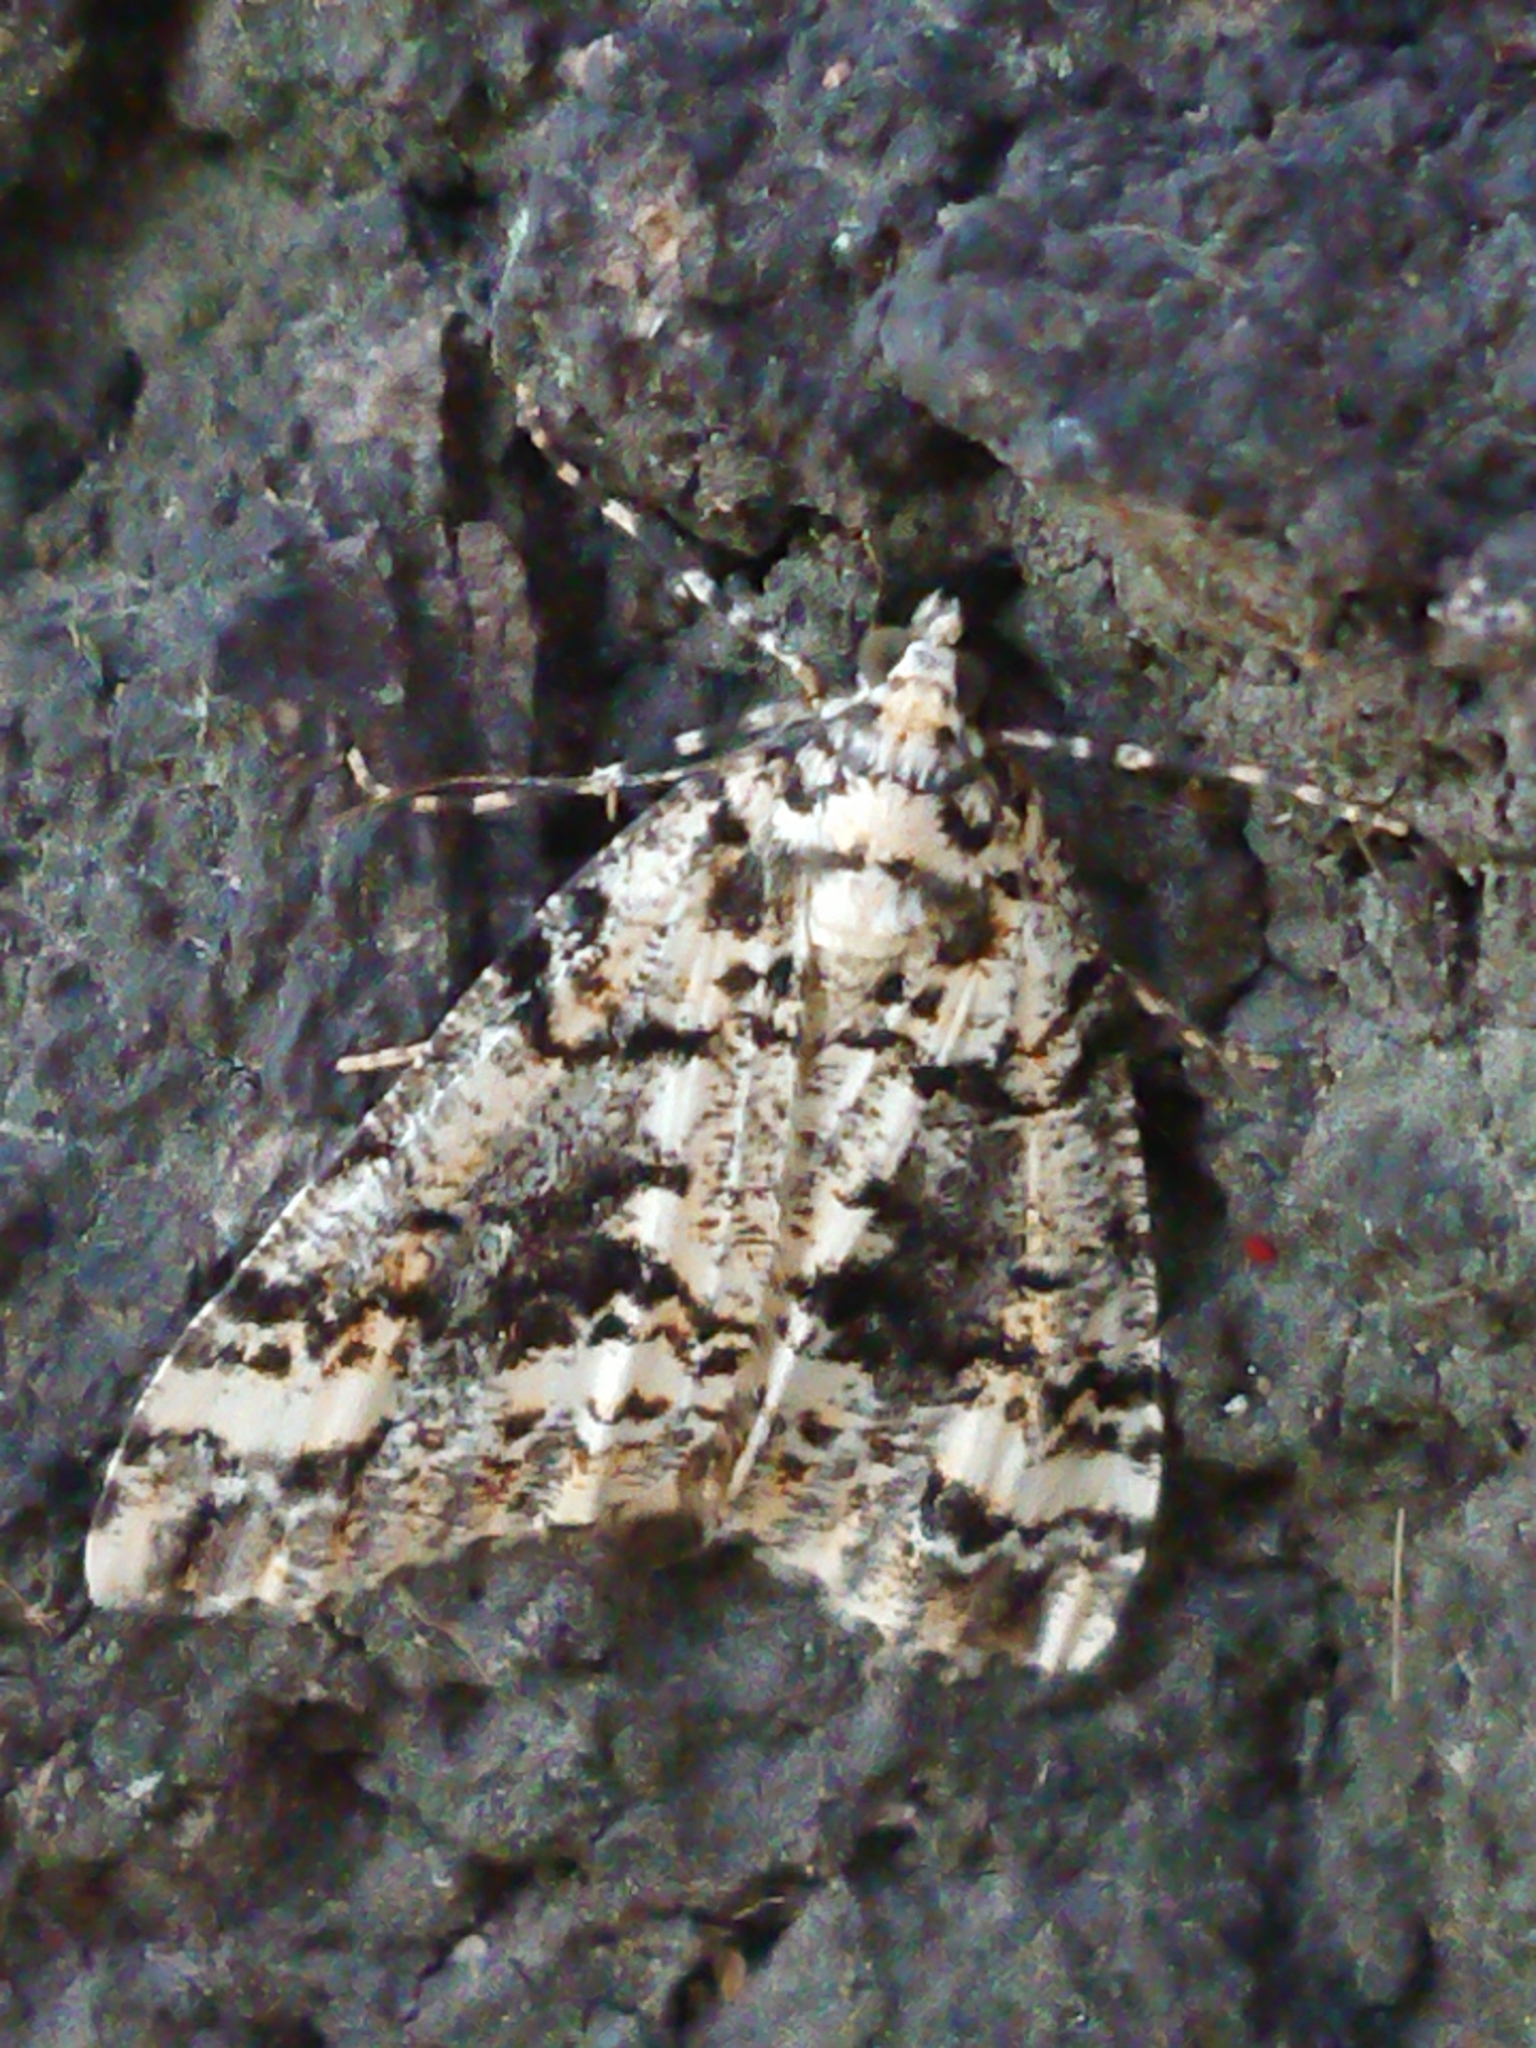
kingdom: Animalia
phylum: Arthropoda
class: Insecta
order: Lepidoptera
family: Geometridae
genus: Pseudocoremia
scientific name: Pseudocoremia leucelaea
